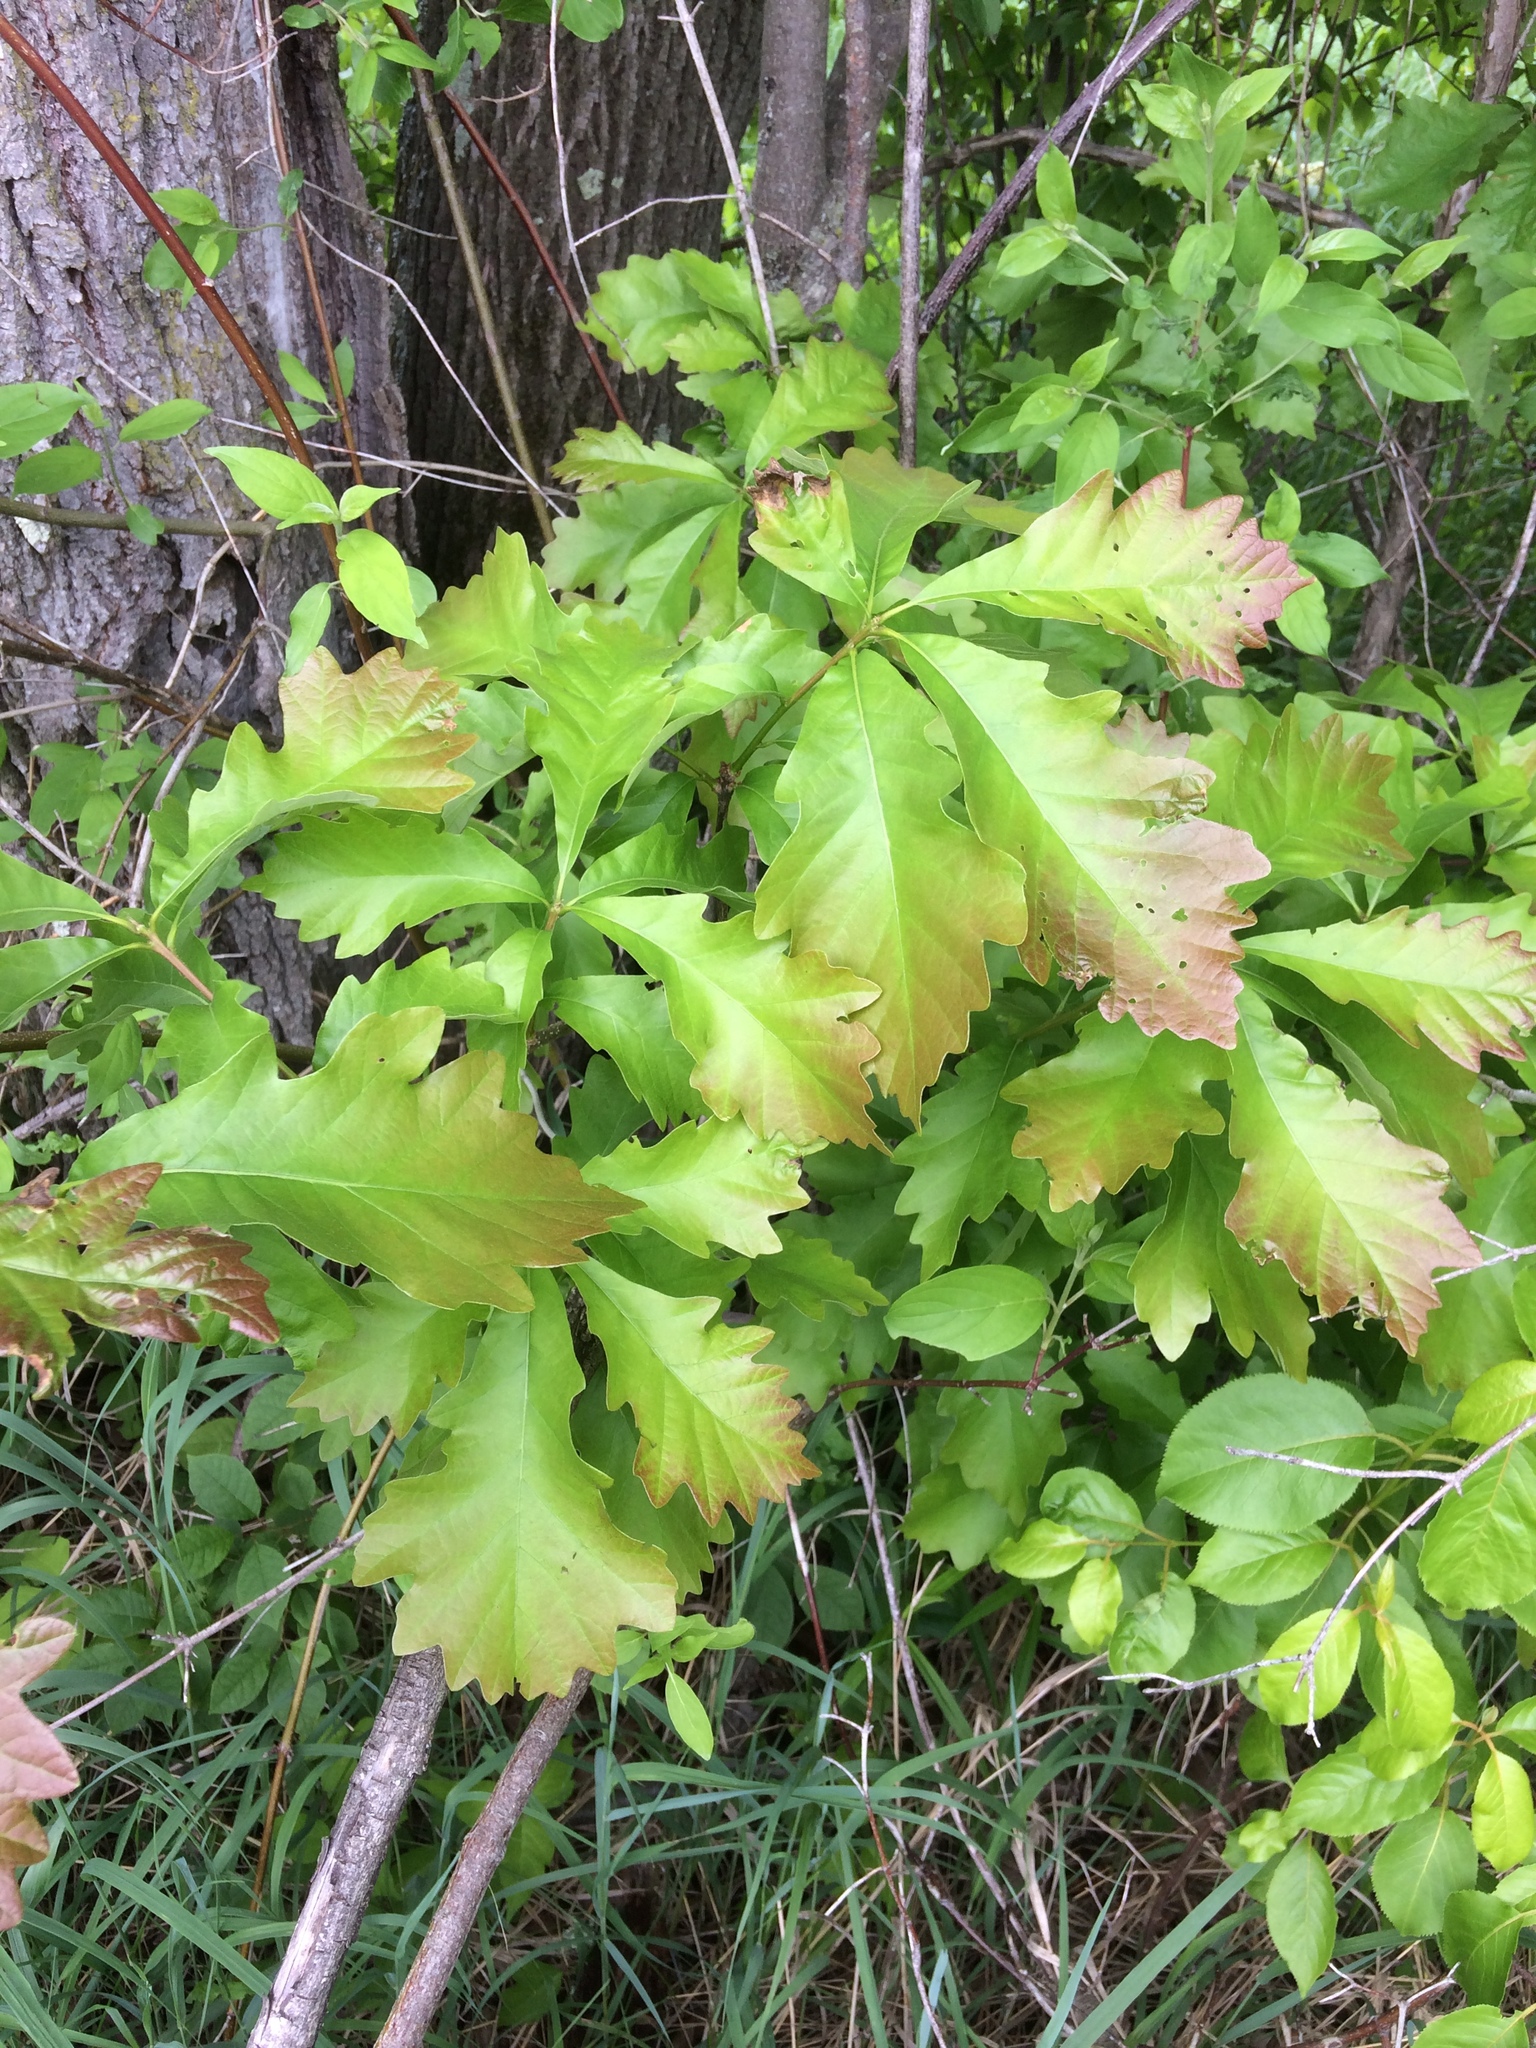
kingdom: Plantae
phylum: Tracheophyta
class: Magnoliopsida
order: Fagales
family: Fagaceae
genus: Quercus
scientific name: Quercus macrocarpa
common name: Bur oak
